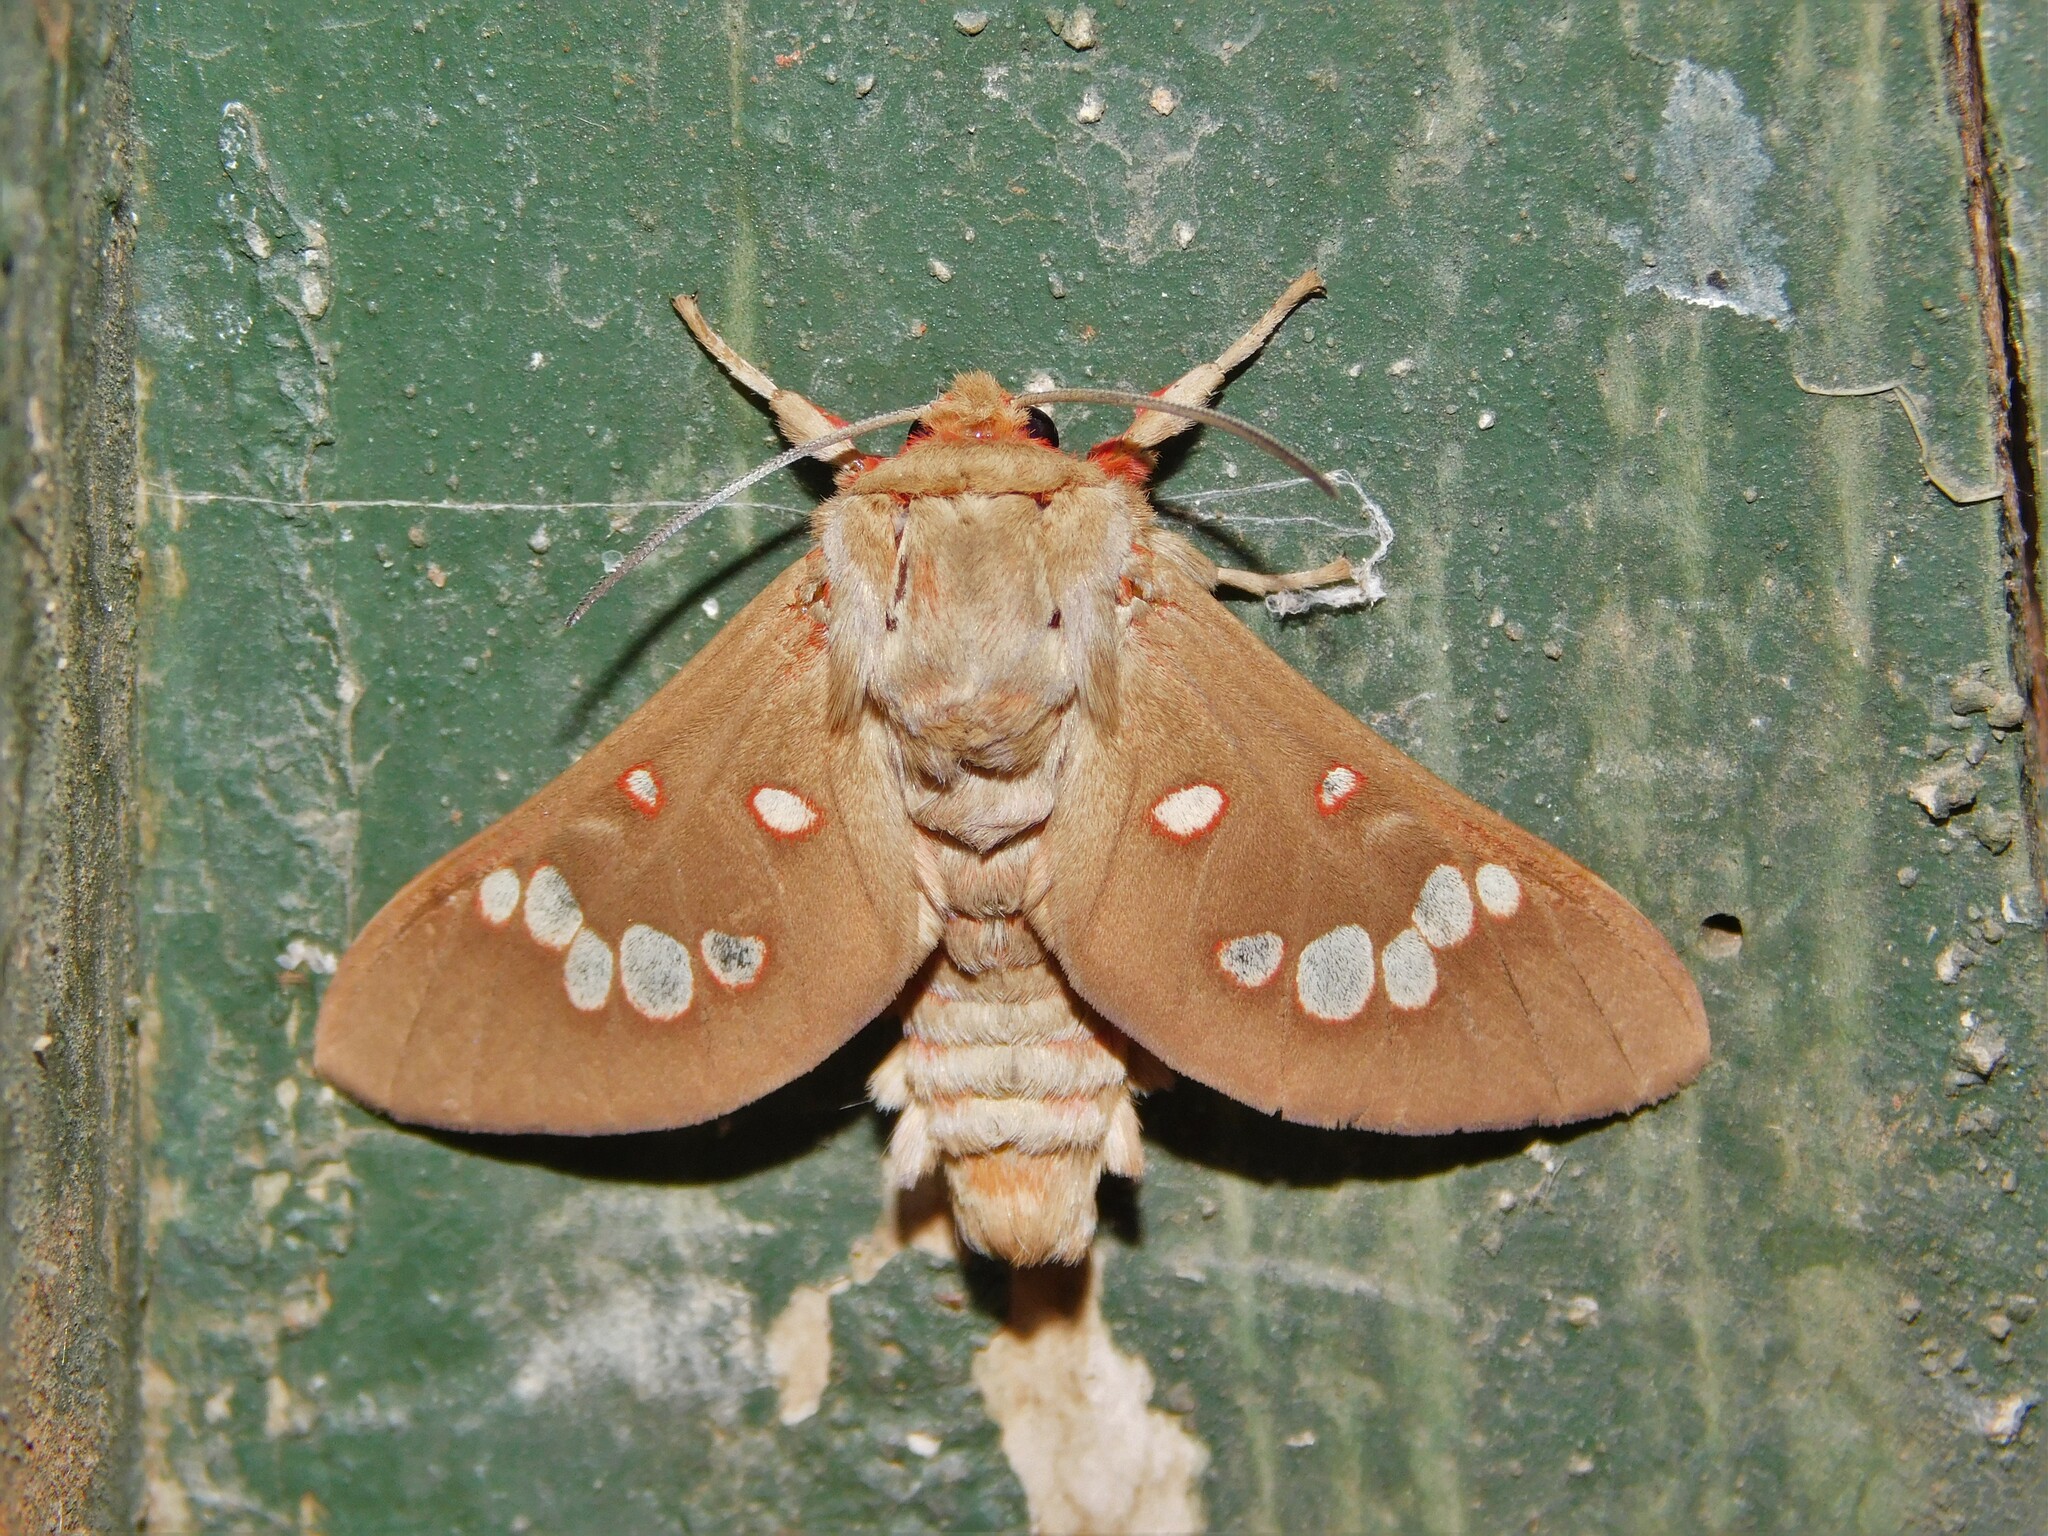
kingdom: Animalia
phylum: Arthropoda
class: Insecta
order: Lepidoptera
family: Erebidae
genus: Balacra
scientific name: Balacra preussi
